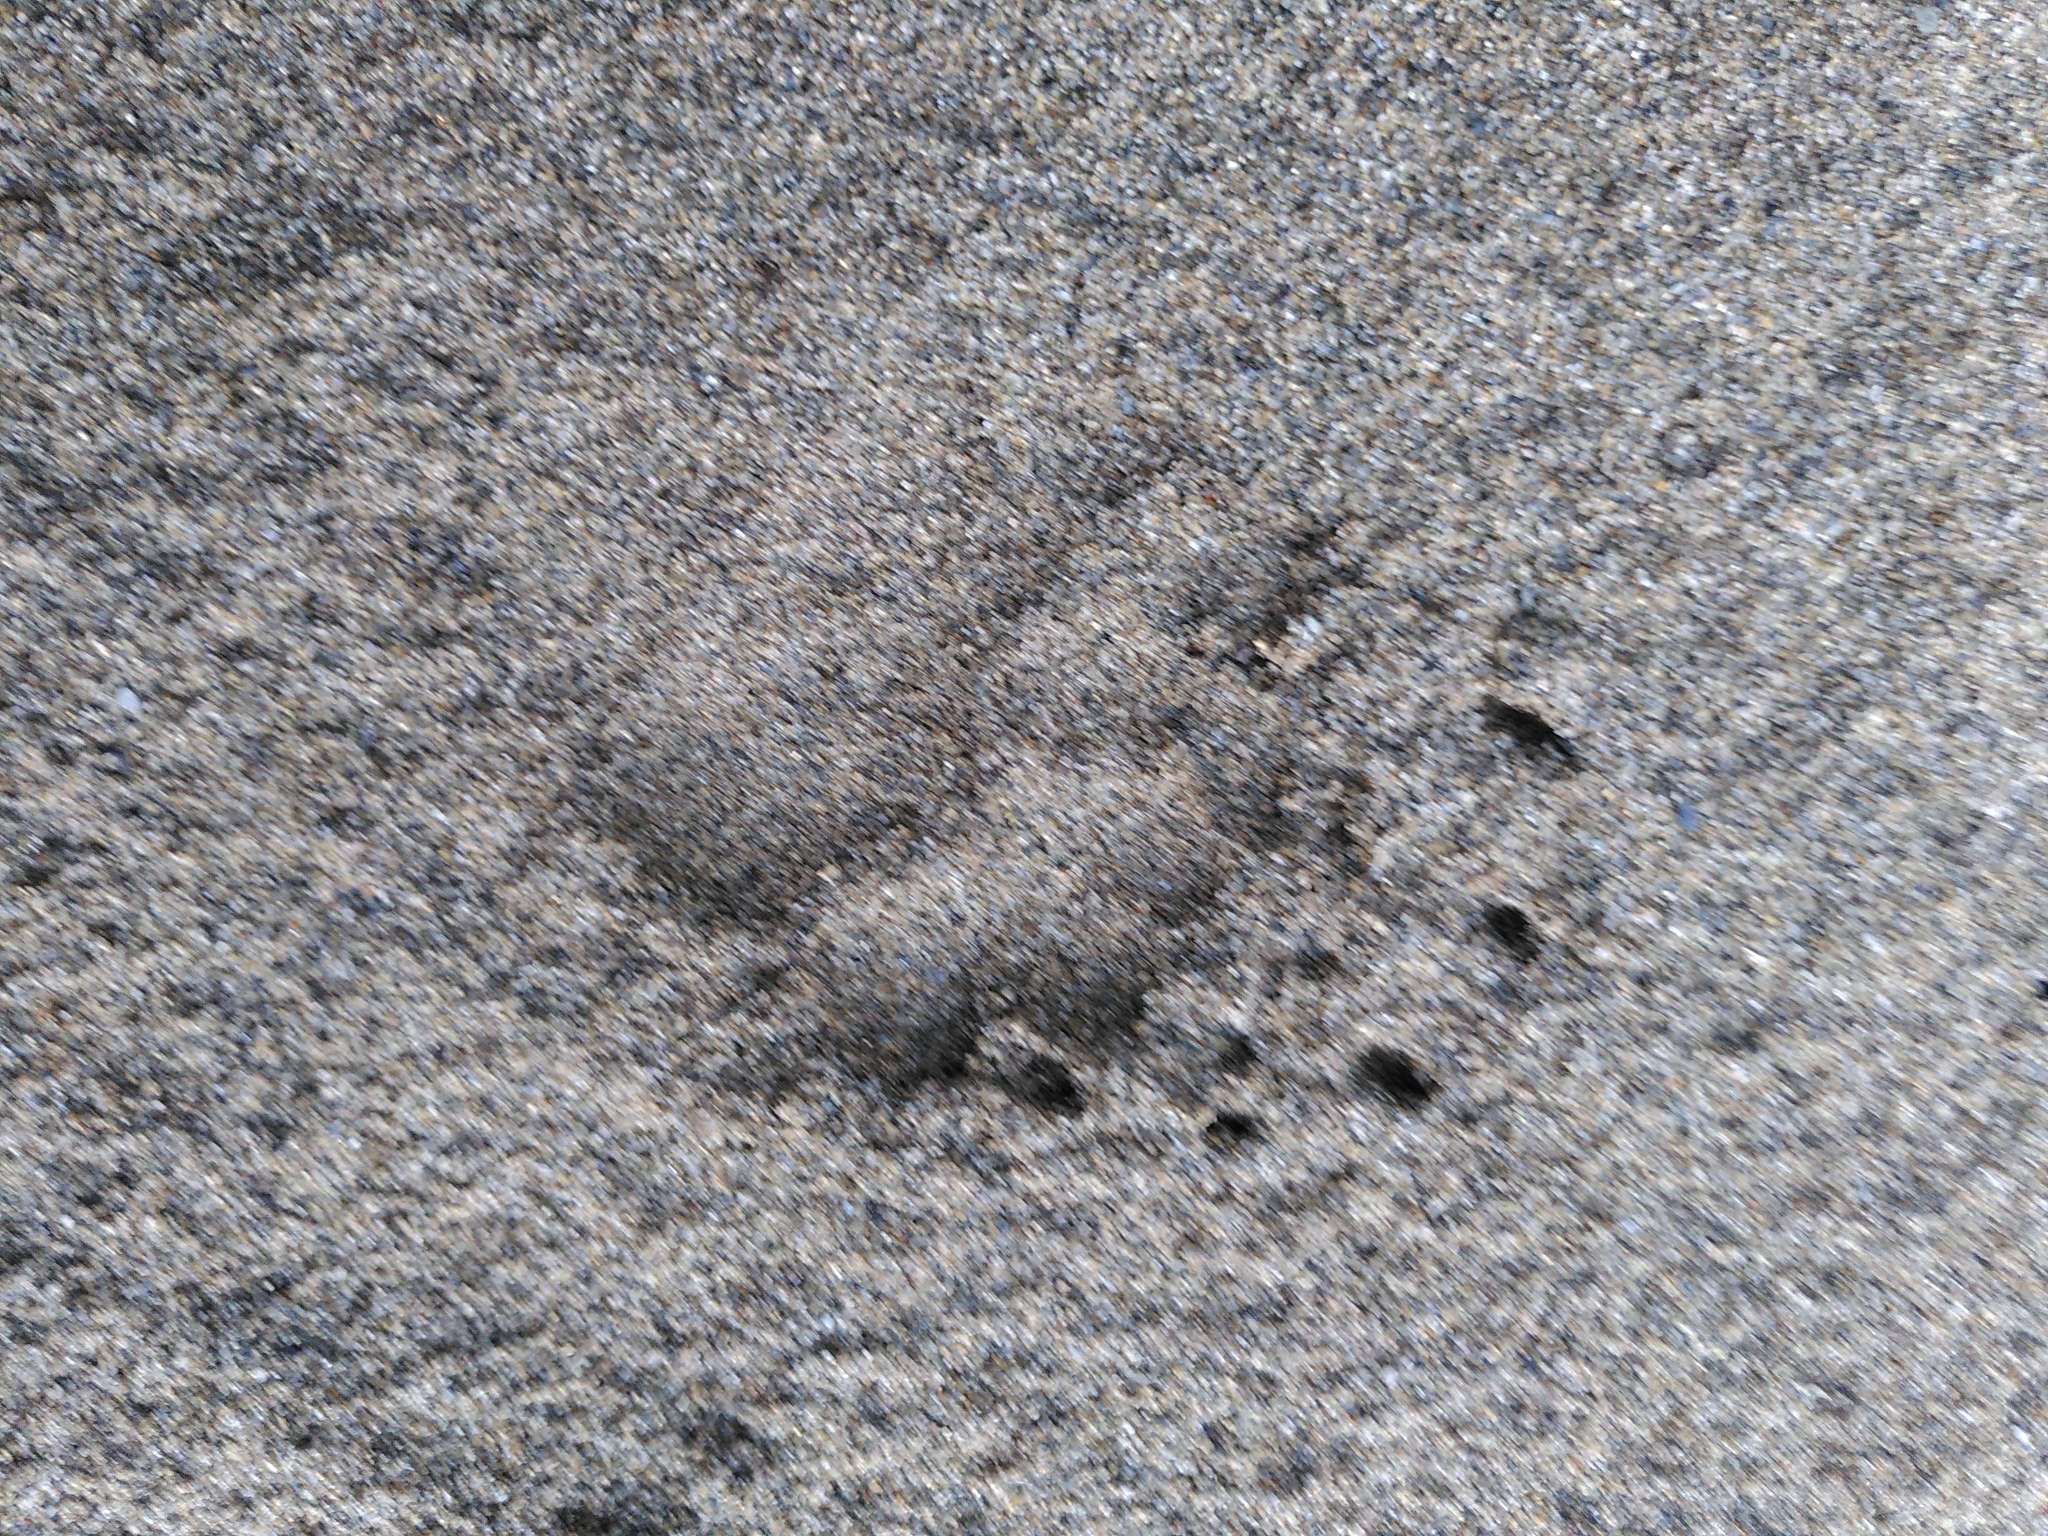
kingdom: Animalia
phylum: Chordata
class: Mammalia
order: Carnivora
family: Mustelidae
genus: Meles
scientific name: Meles meles
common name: Eurasian badger
